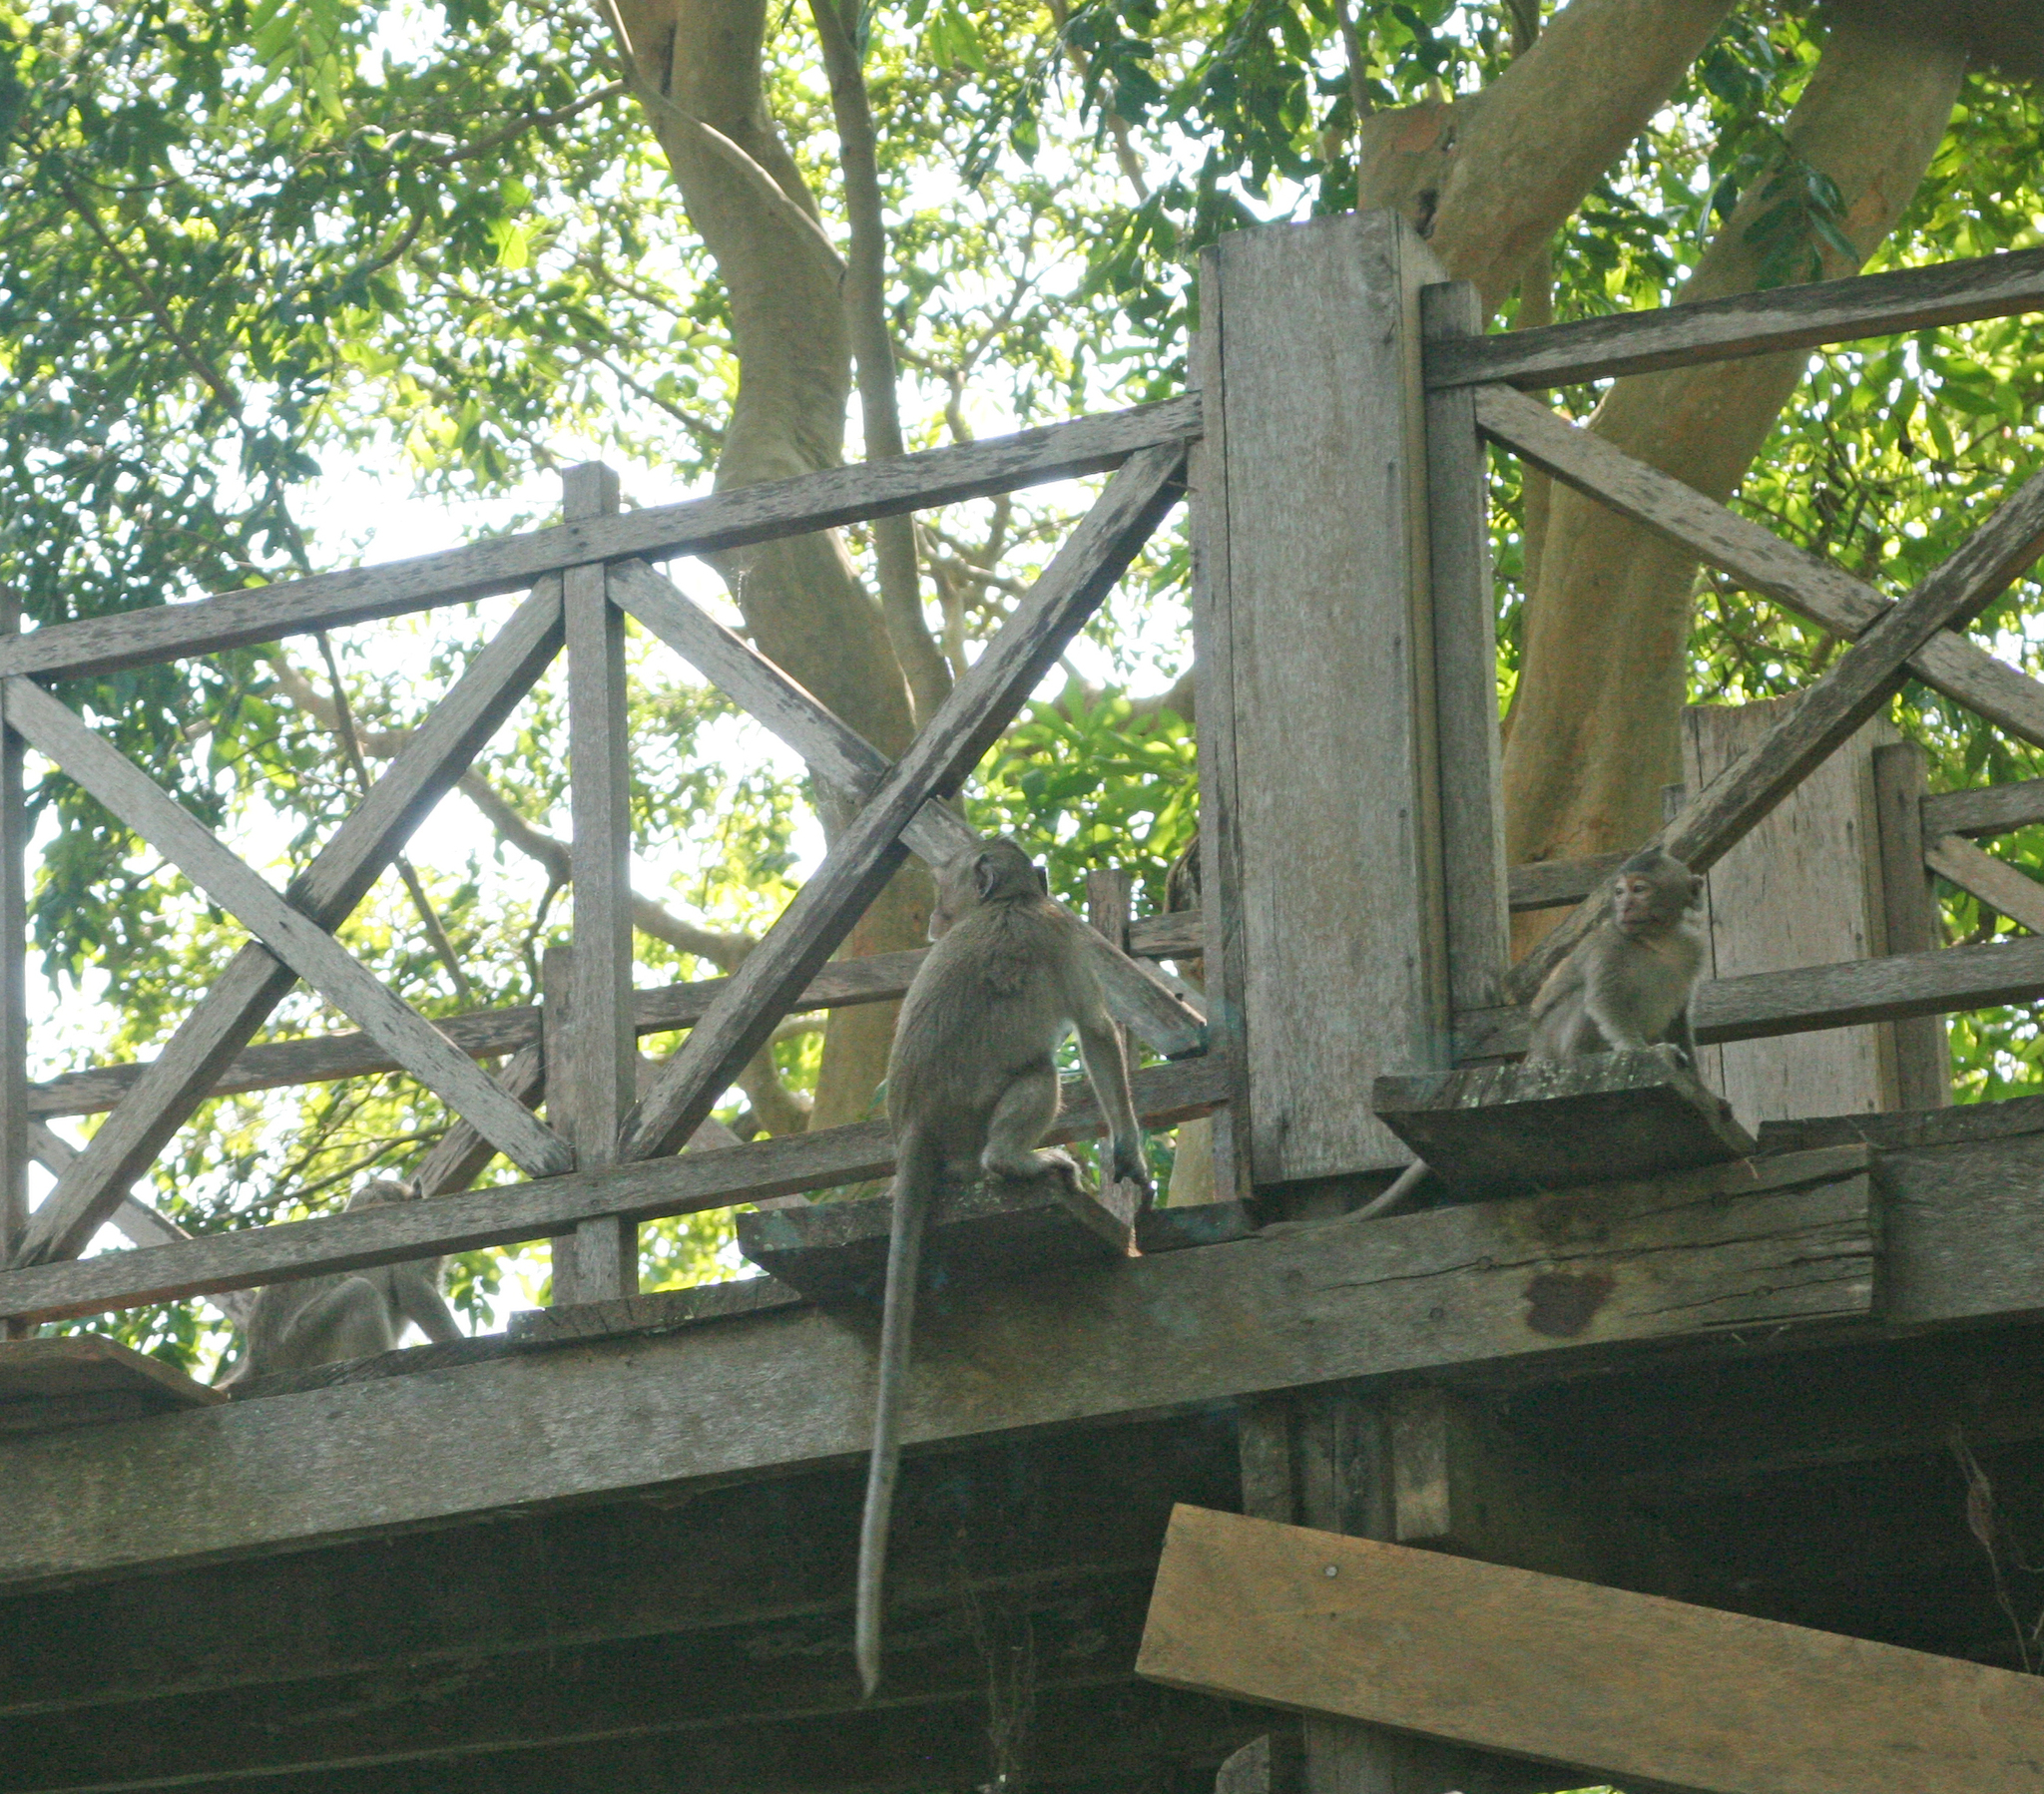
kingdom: Animalia
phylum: Chordata
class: Mammalia
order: Primates
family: Cercopithecidae
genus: Macaca
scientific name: Macaca fascicularis
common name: Crab-eating macaque
